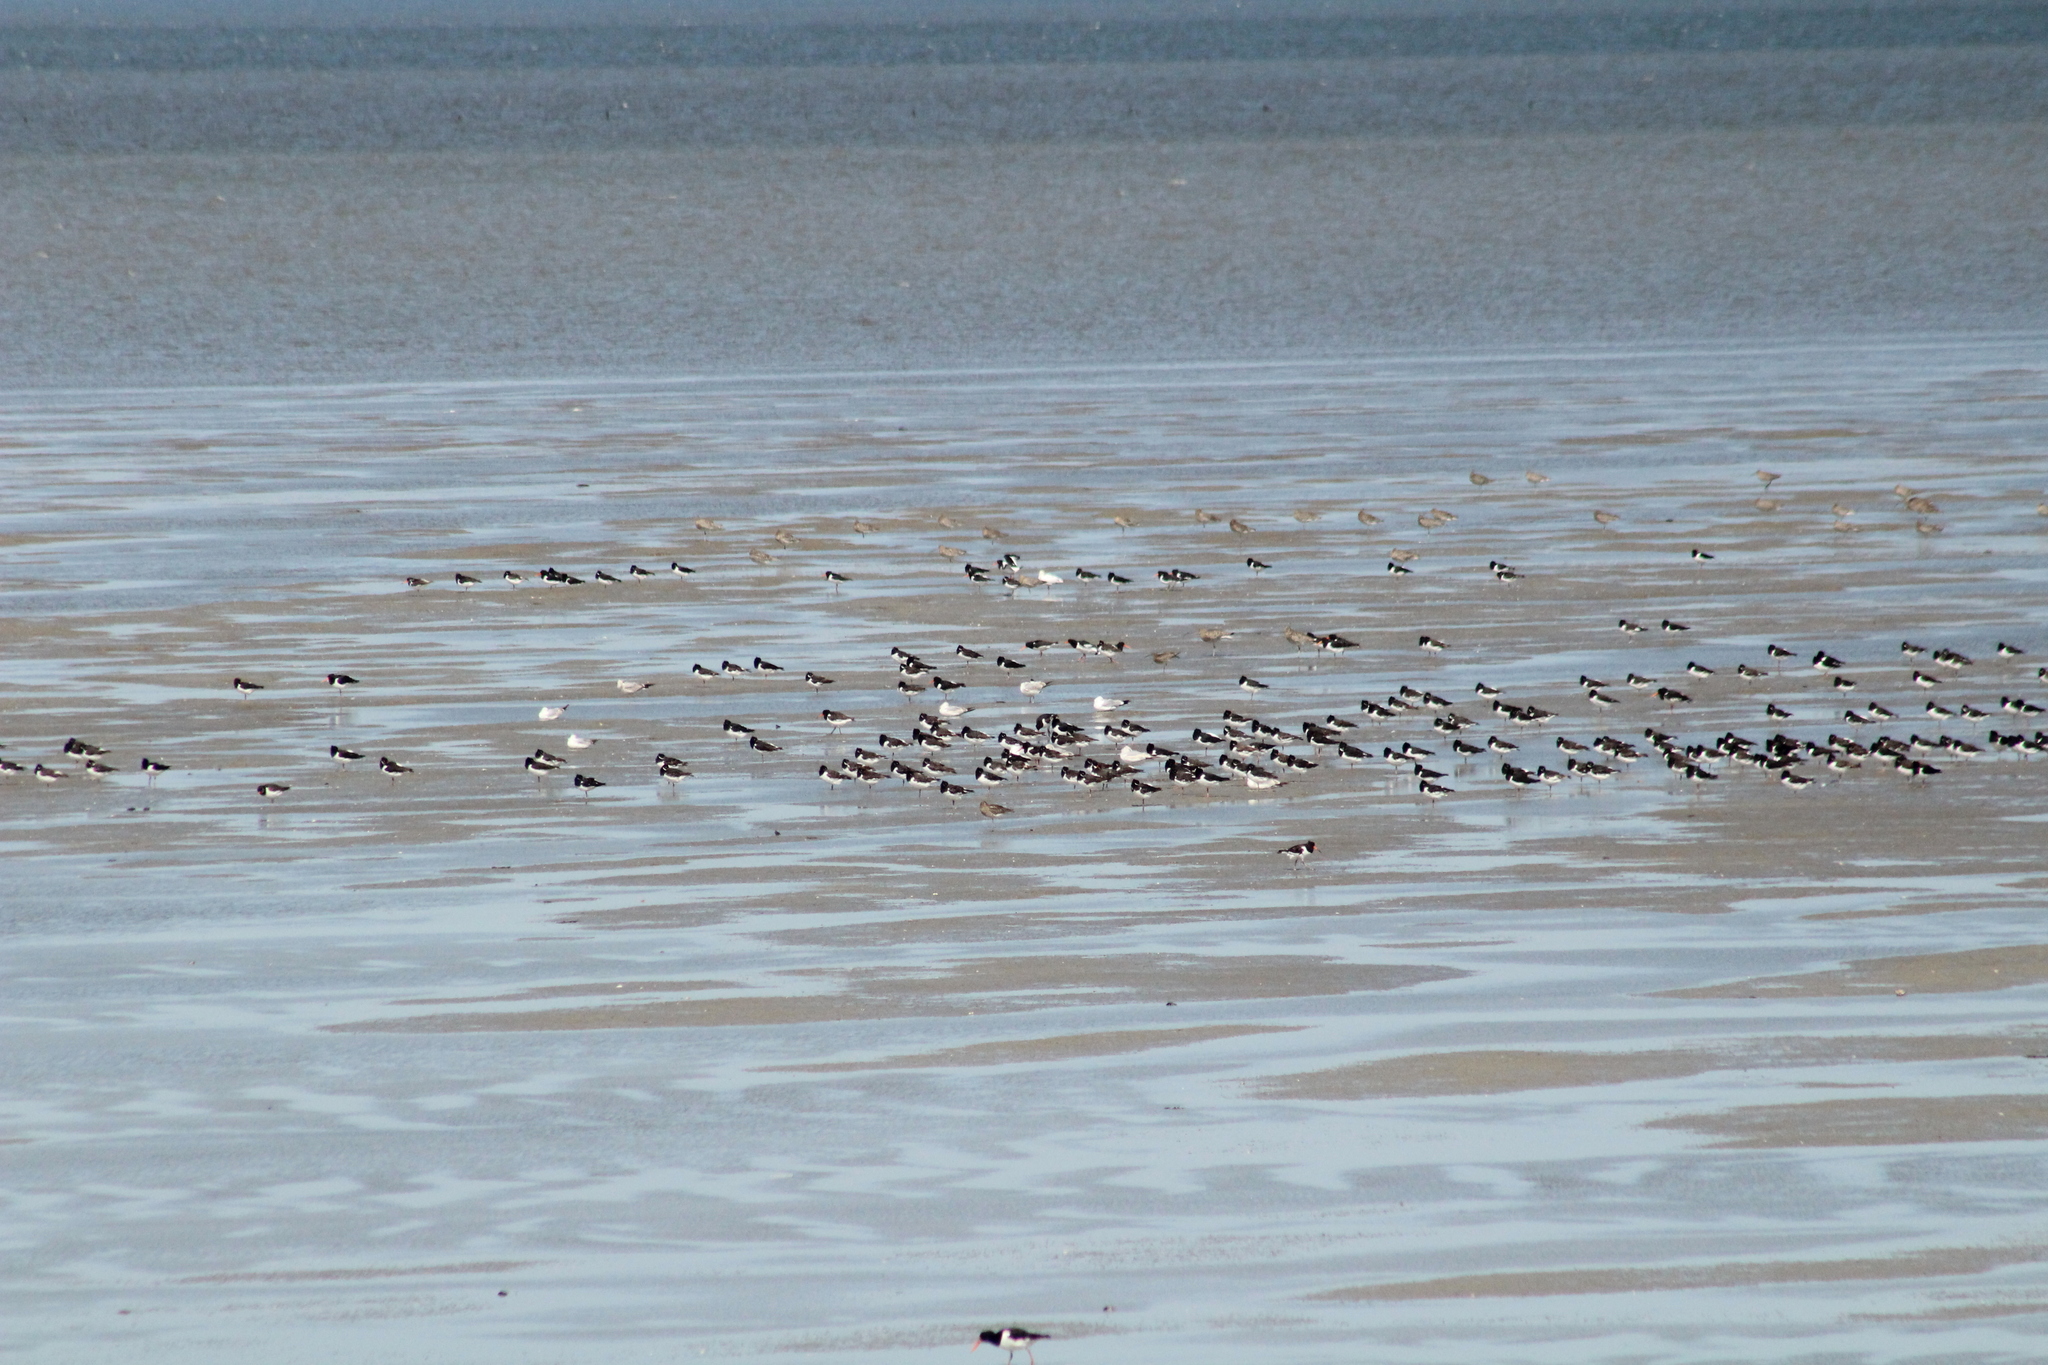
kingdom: Animalia
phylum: Chordata
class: Aves
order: Charadriiformes
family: Haematopodidae
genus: Haematopus
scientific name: Haematopus ostralegus
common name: Eurasian oystercatcher
